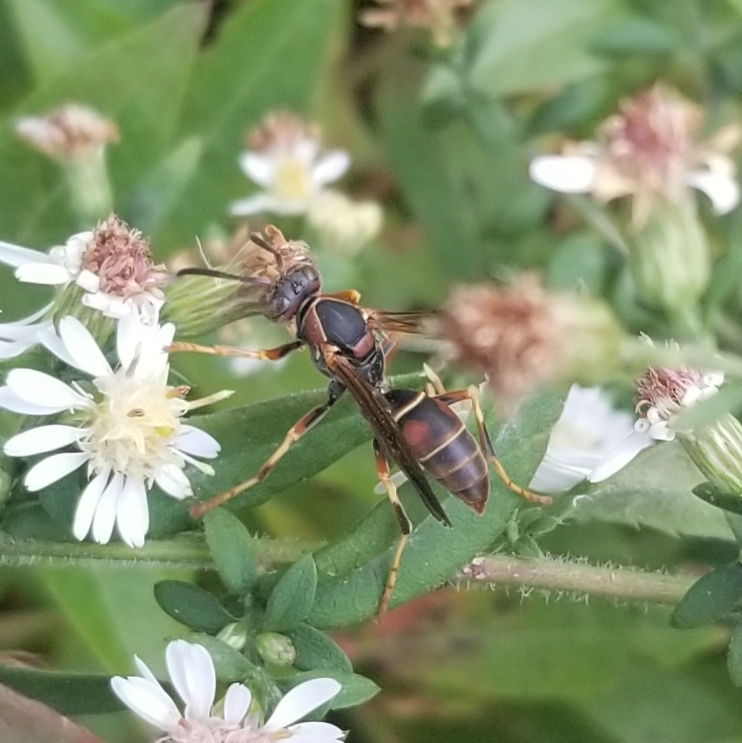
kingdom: Animalia
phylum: Arthropoda
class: Insecta
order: Hymenoptera
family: Eumenidae
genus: Polistes
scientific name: Polistes fuscatus
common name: Dark paper wasp
